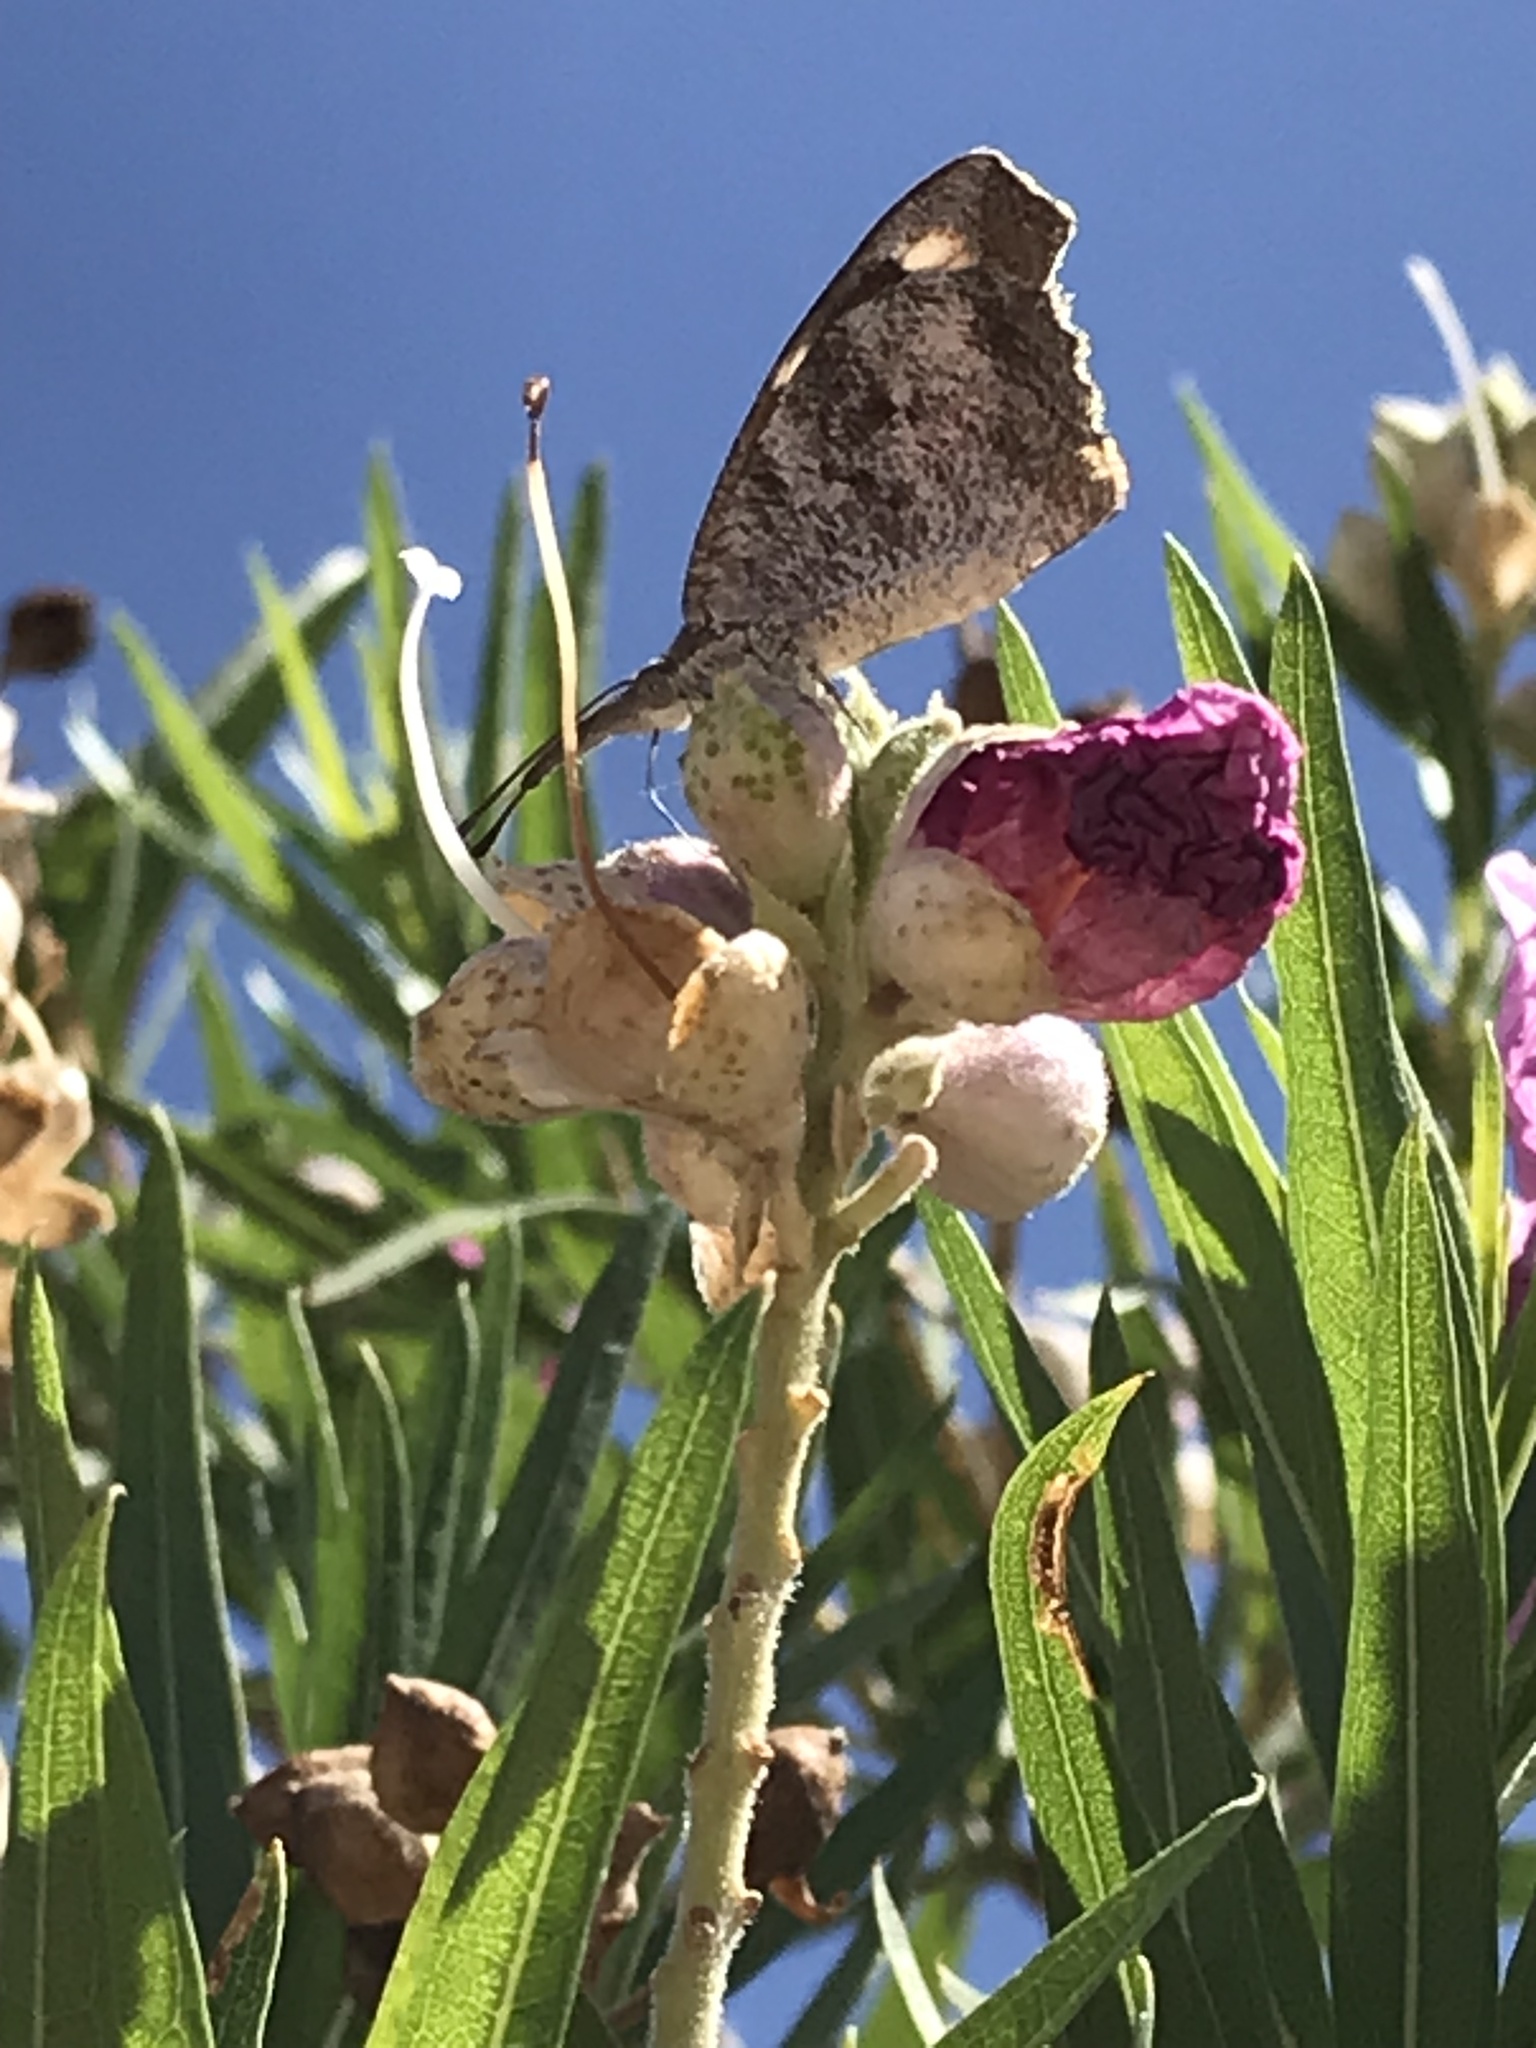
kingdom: Animalia
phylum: Arthropoda
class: Insecta
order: Lepidoptera
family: Nymphalidae
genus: Libytheana
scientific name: Libytheana carinenta
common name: American snout
